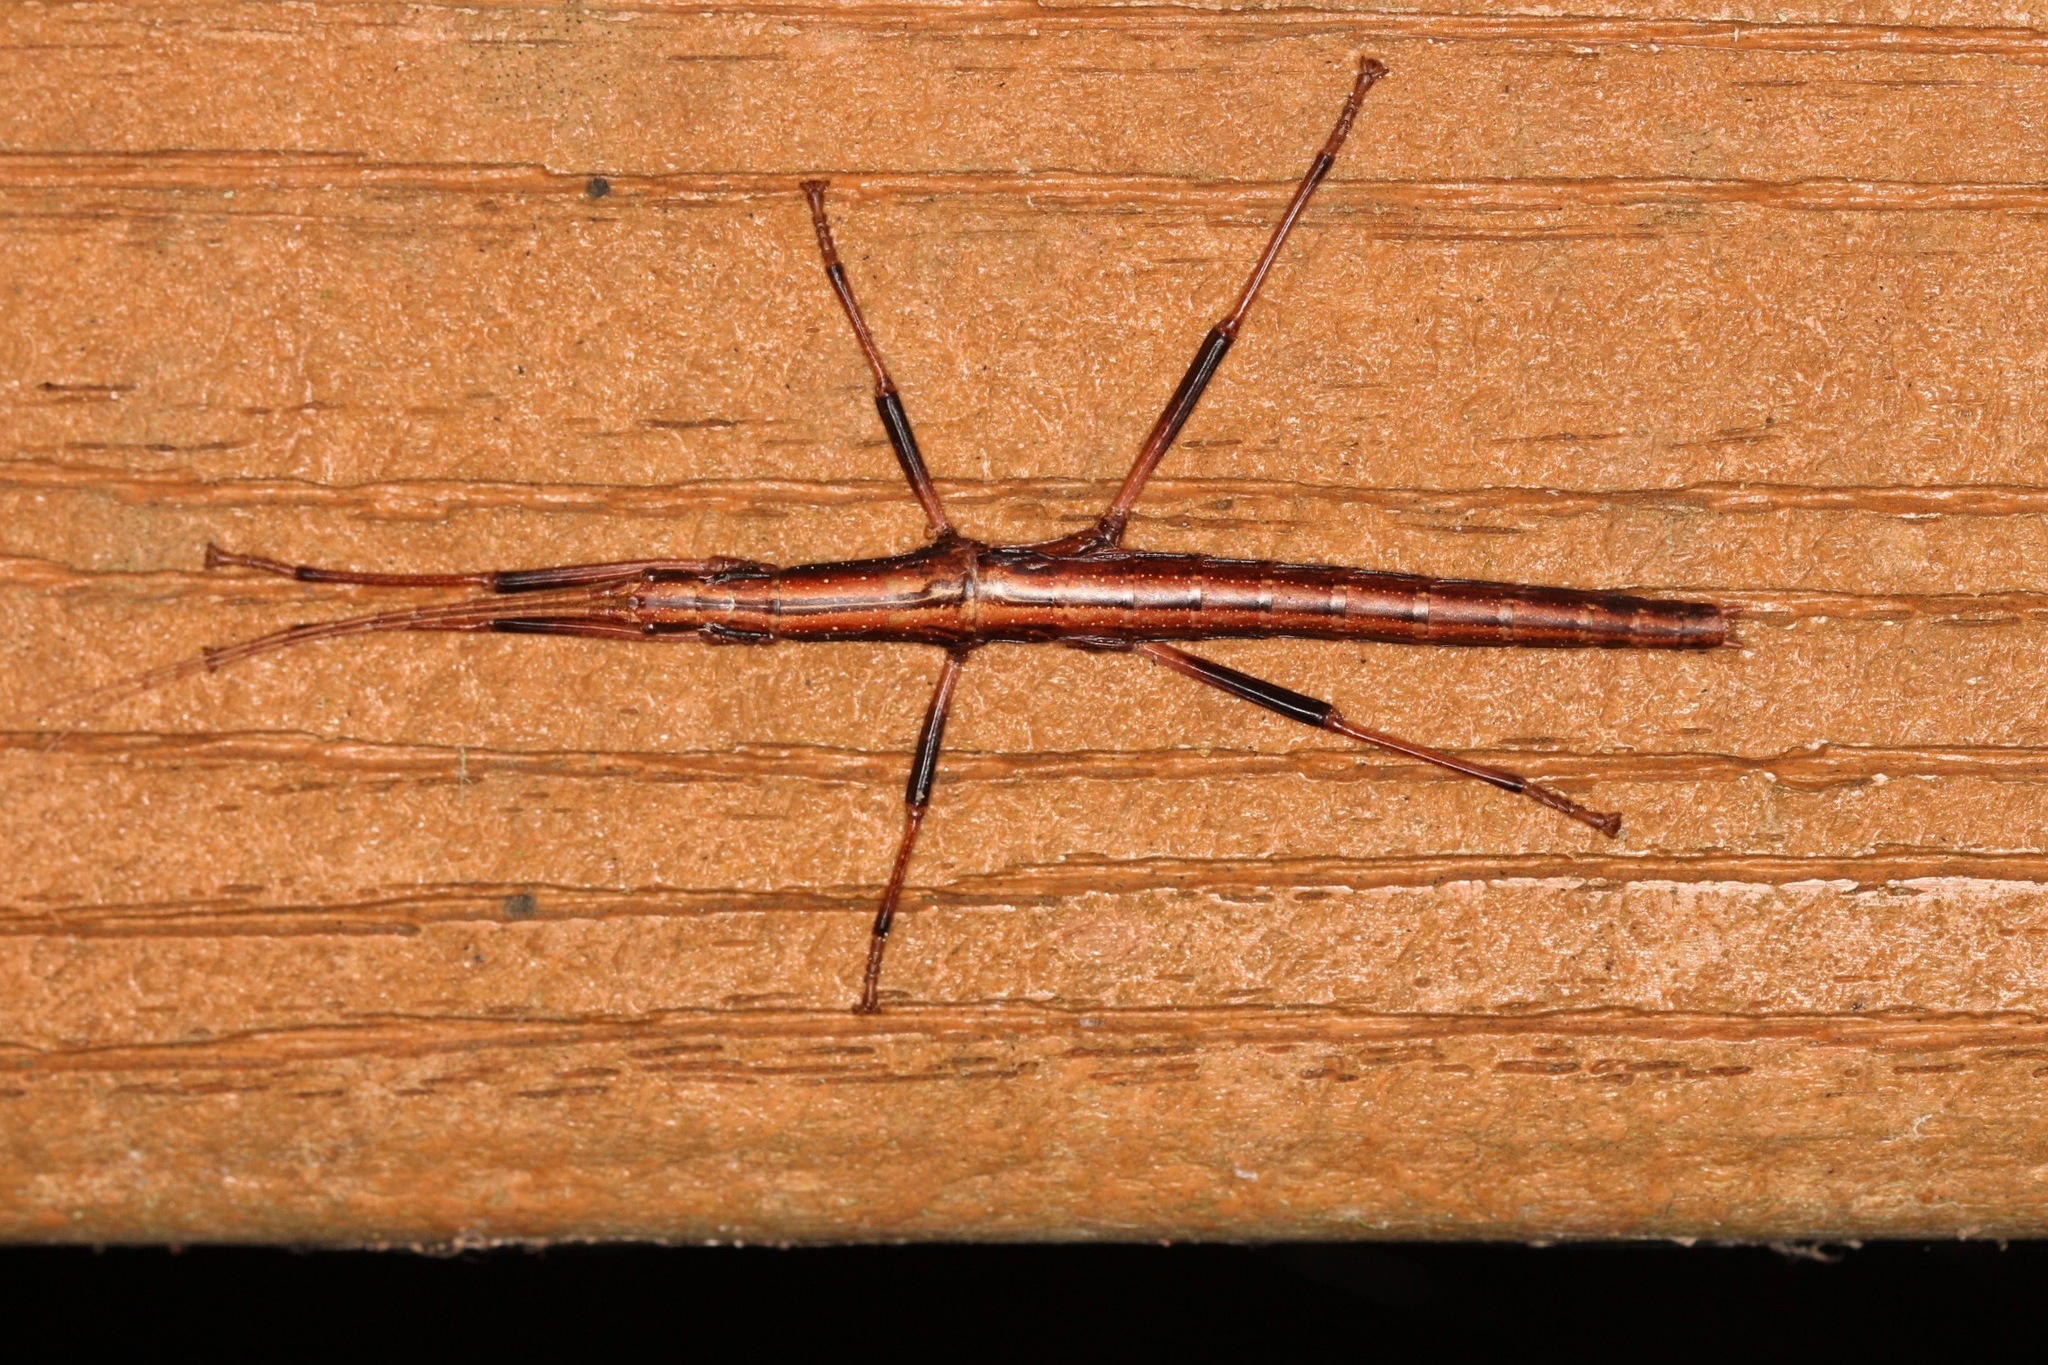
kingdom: Animalia
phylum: Arthropoda
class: Insecta
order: Phasmida
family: Pseudophasmatidae
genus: Anisomorpha
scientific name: Anisomorpha buprestoides
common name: Florida stick insect
